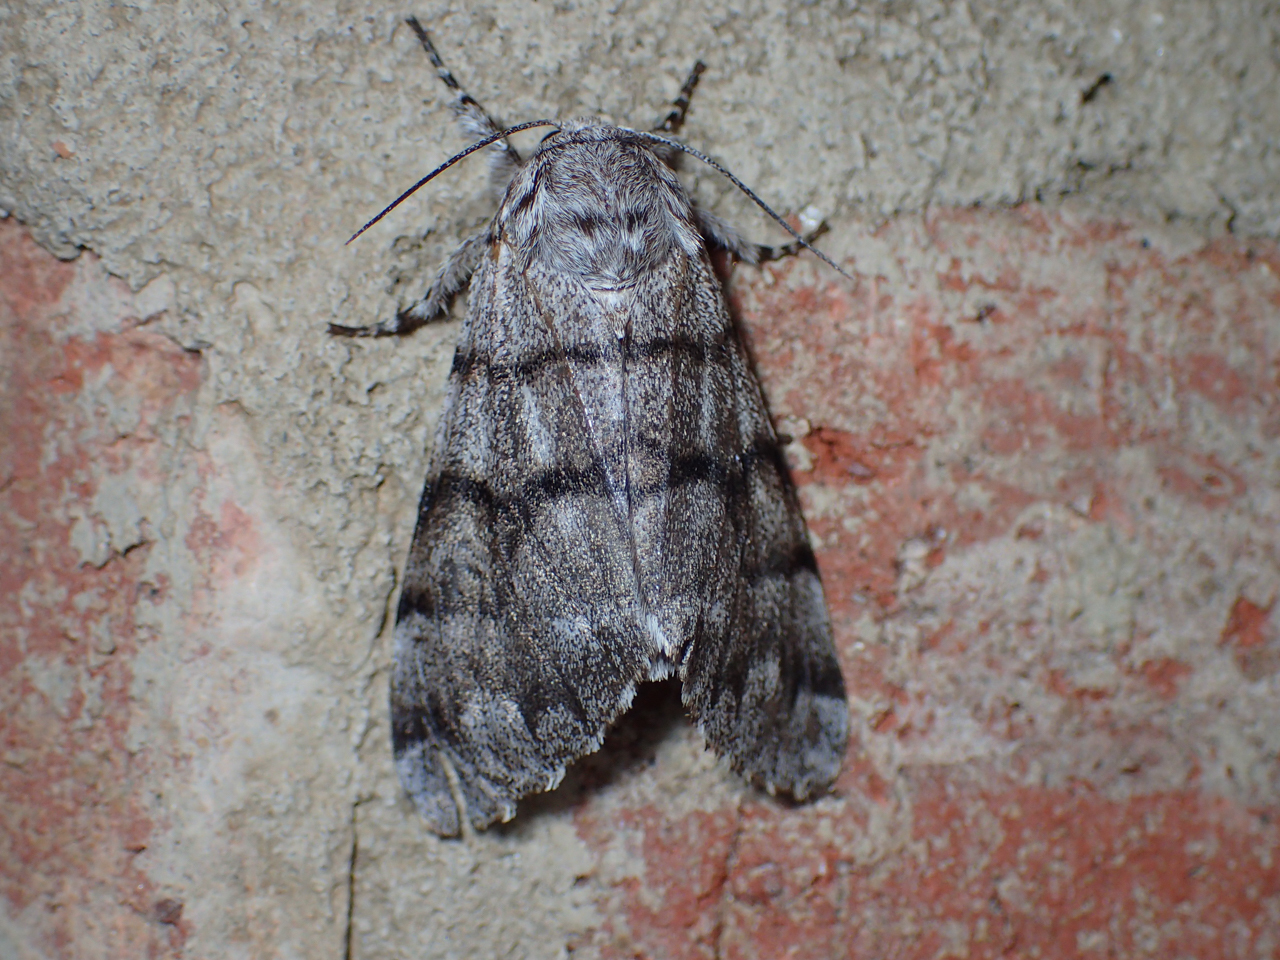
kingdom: Animalia
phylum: Arthropoda
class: Insecta
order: Lepidoptera
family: Noctuidae
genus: Panthea
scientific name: Panthea furcilla
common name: Eastern panthea moth
